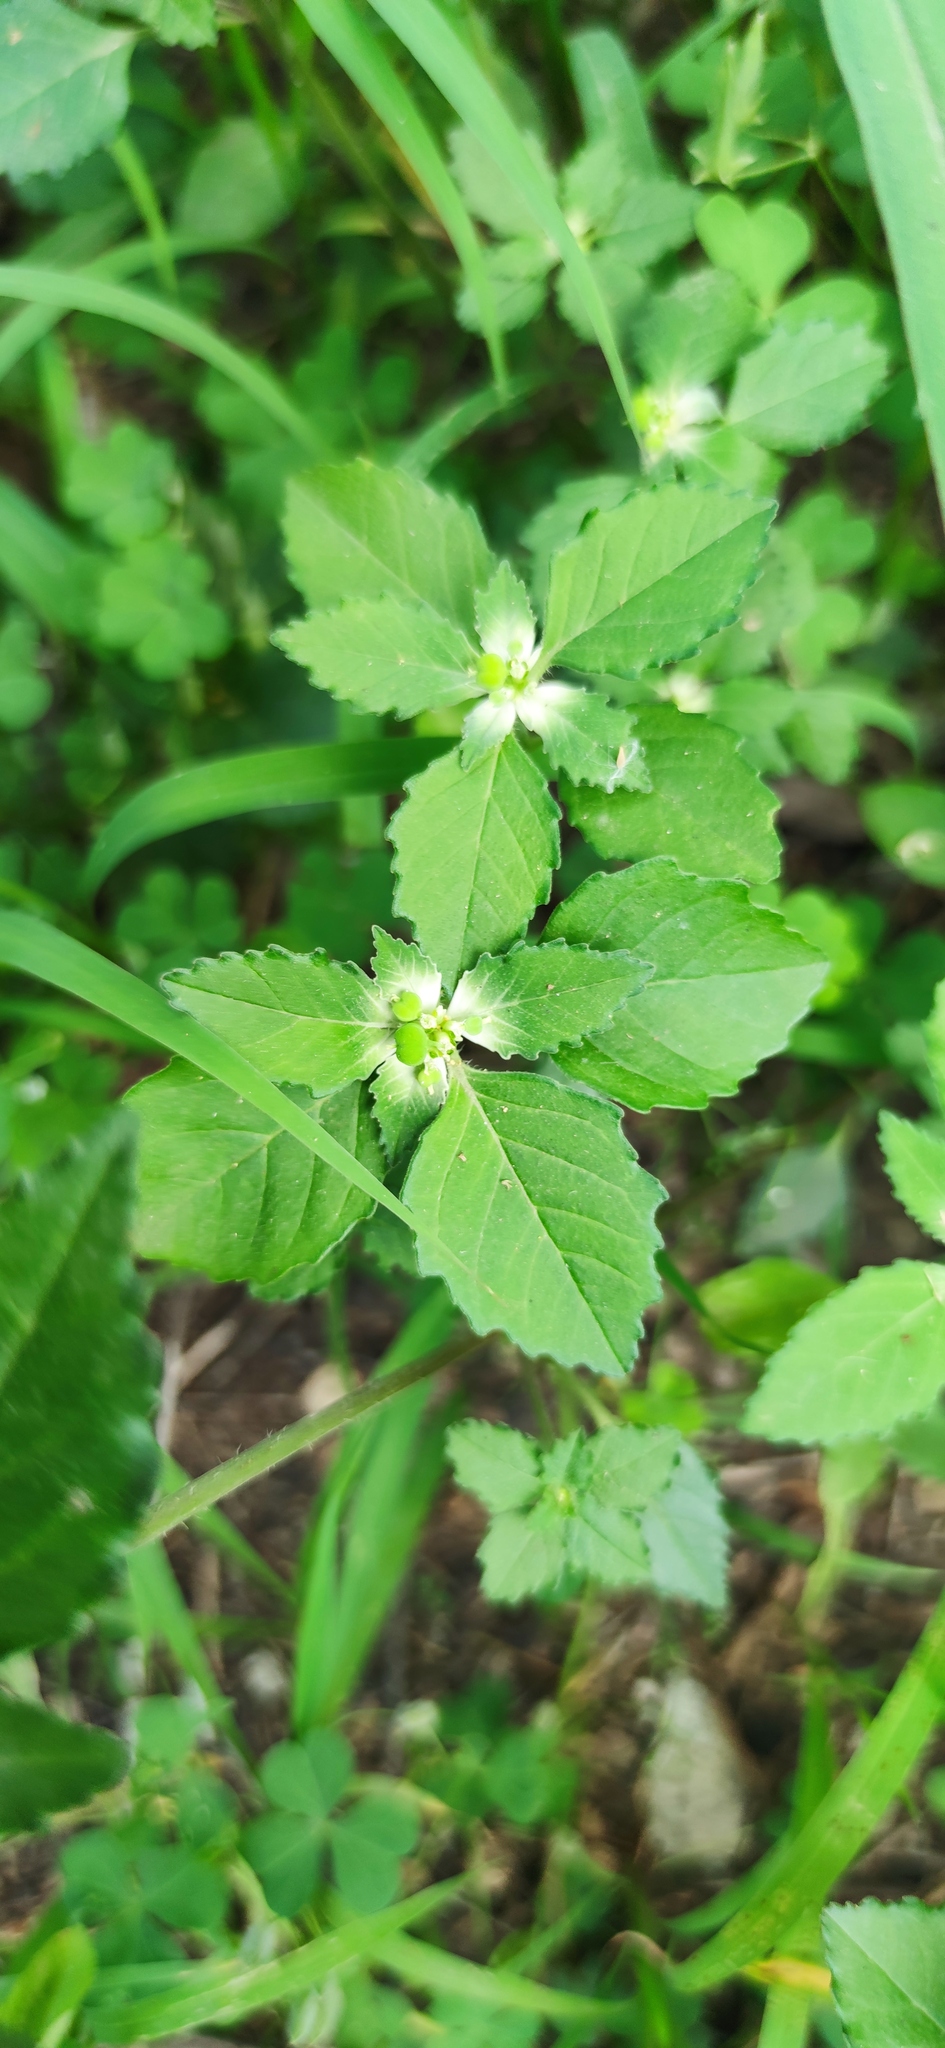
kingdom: Plantae
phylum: Tracheophyta
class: Magnoliopsida
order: Malpighiales
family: Euphorbiaceae
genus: Euphorbia
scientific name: Euphorbia dentata
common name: Dentate spurge
